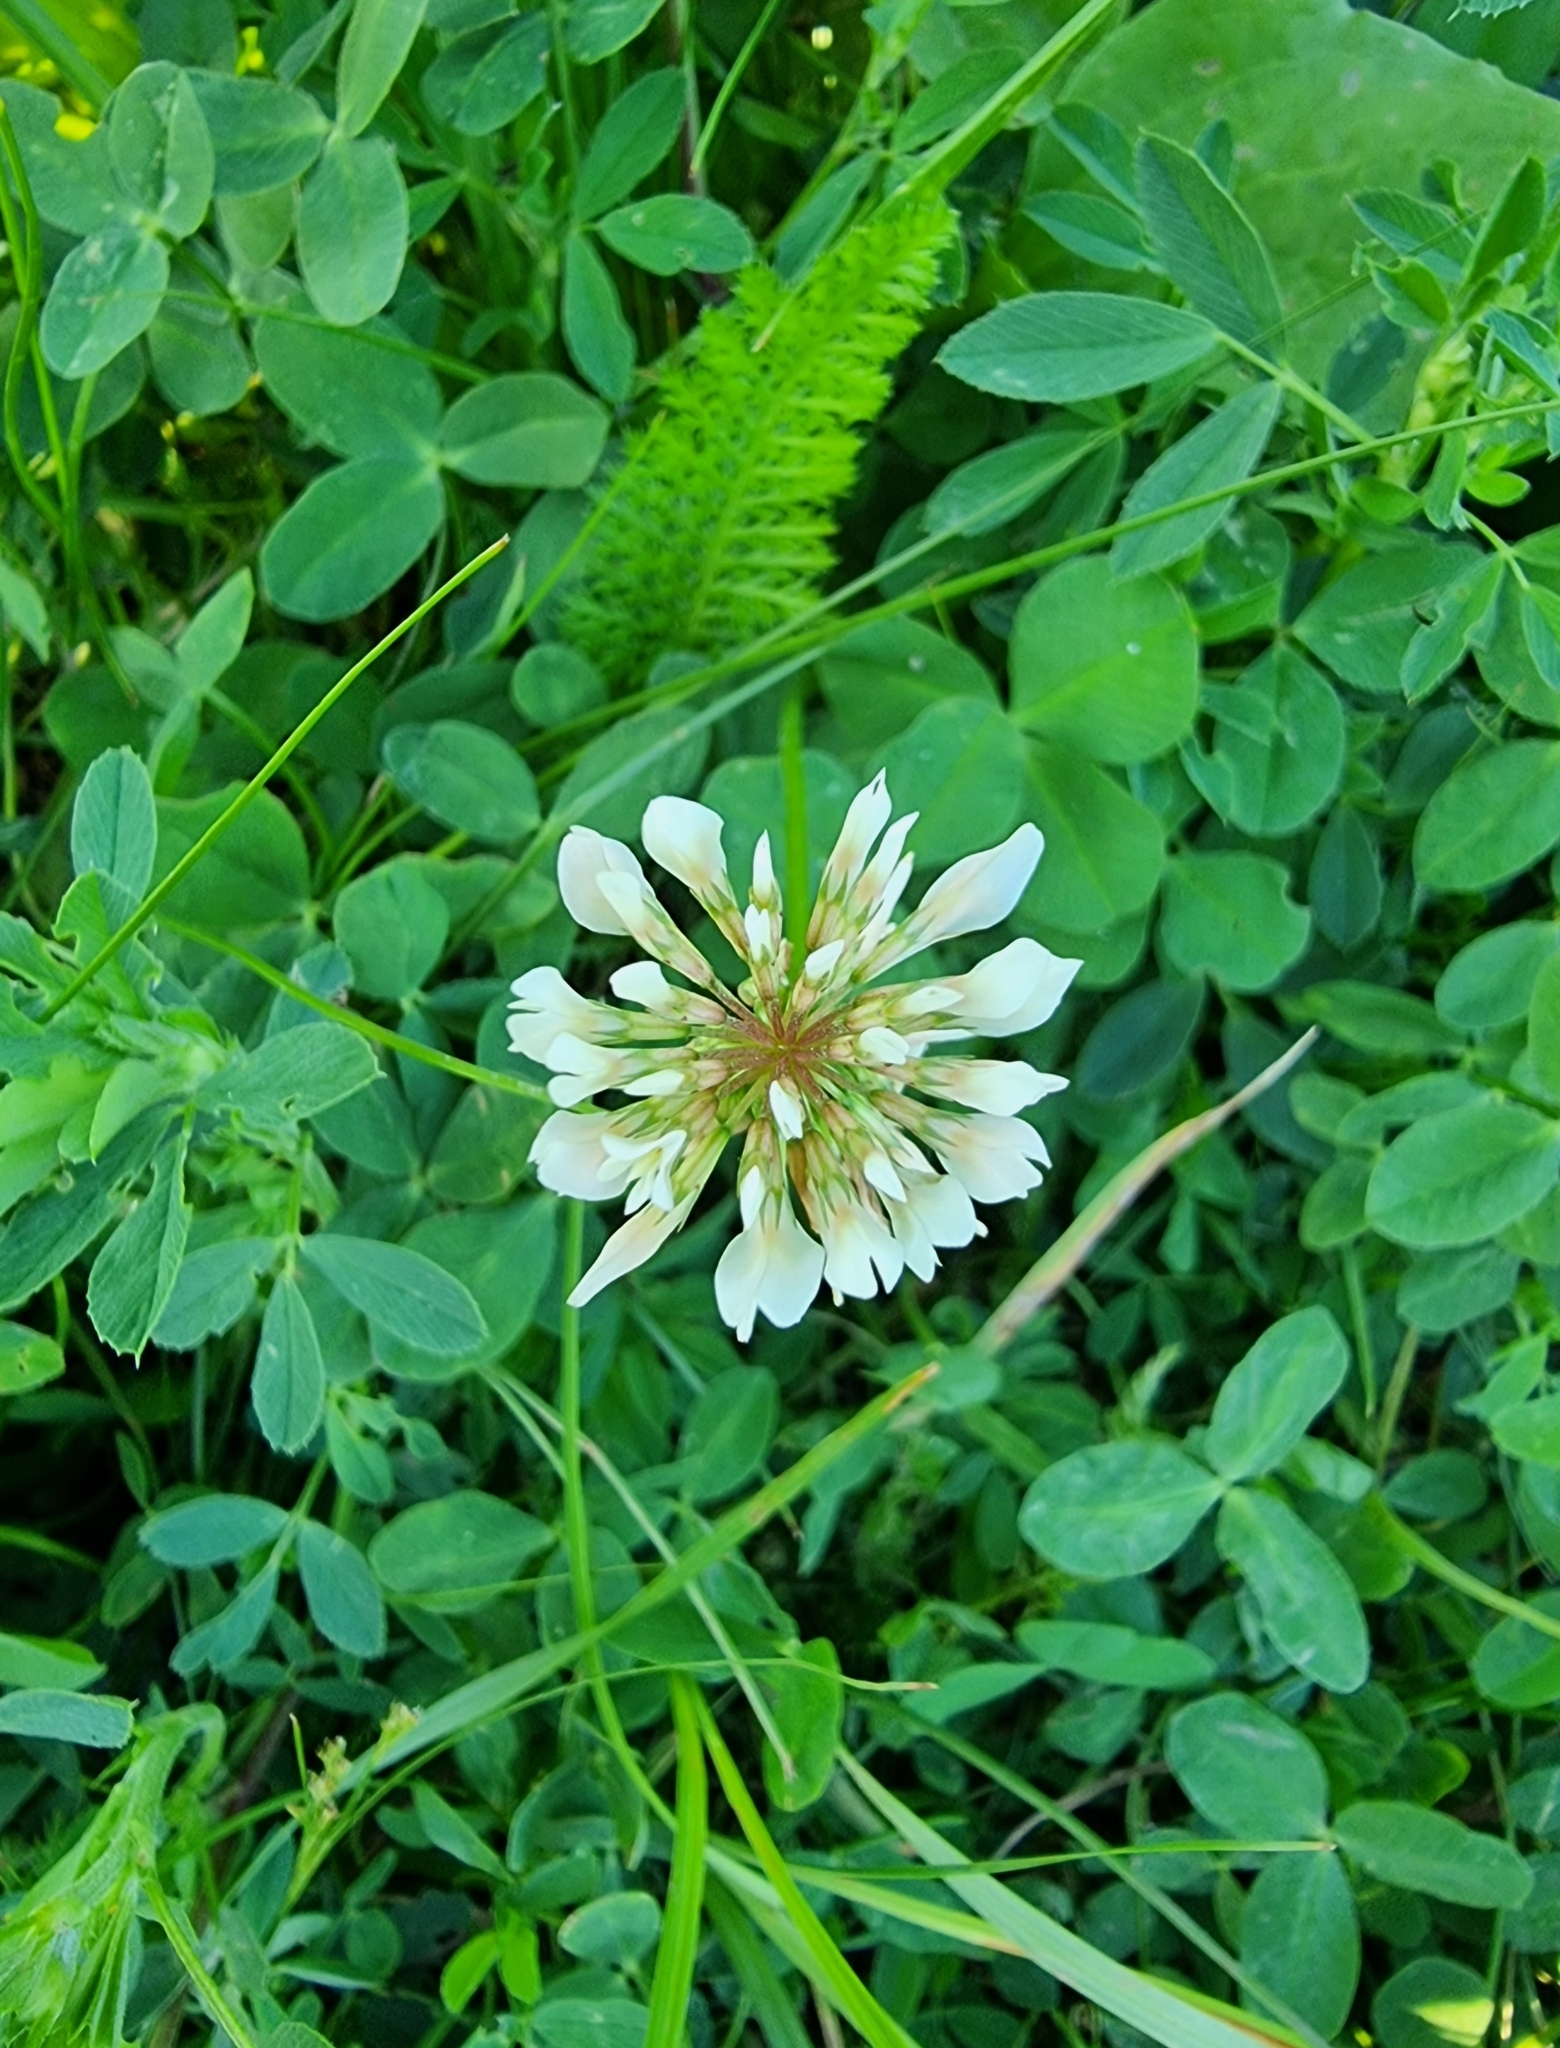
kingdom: Plantae
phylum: Tracheophyta
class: Magnoliopsida
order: Fabales
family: Fabaceae
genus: Trifolium
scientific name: Trifolium repens
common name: White clover
